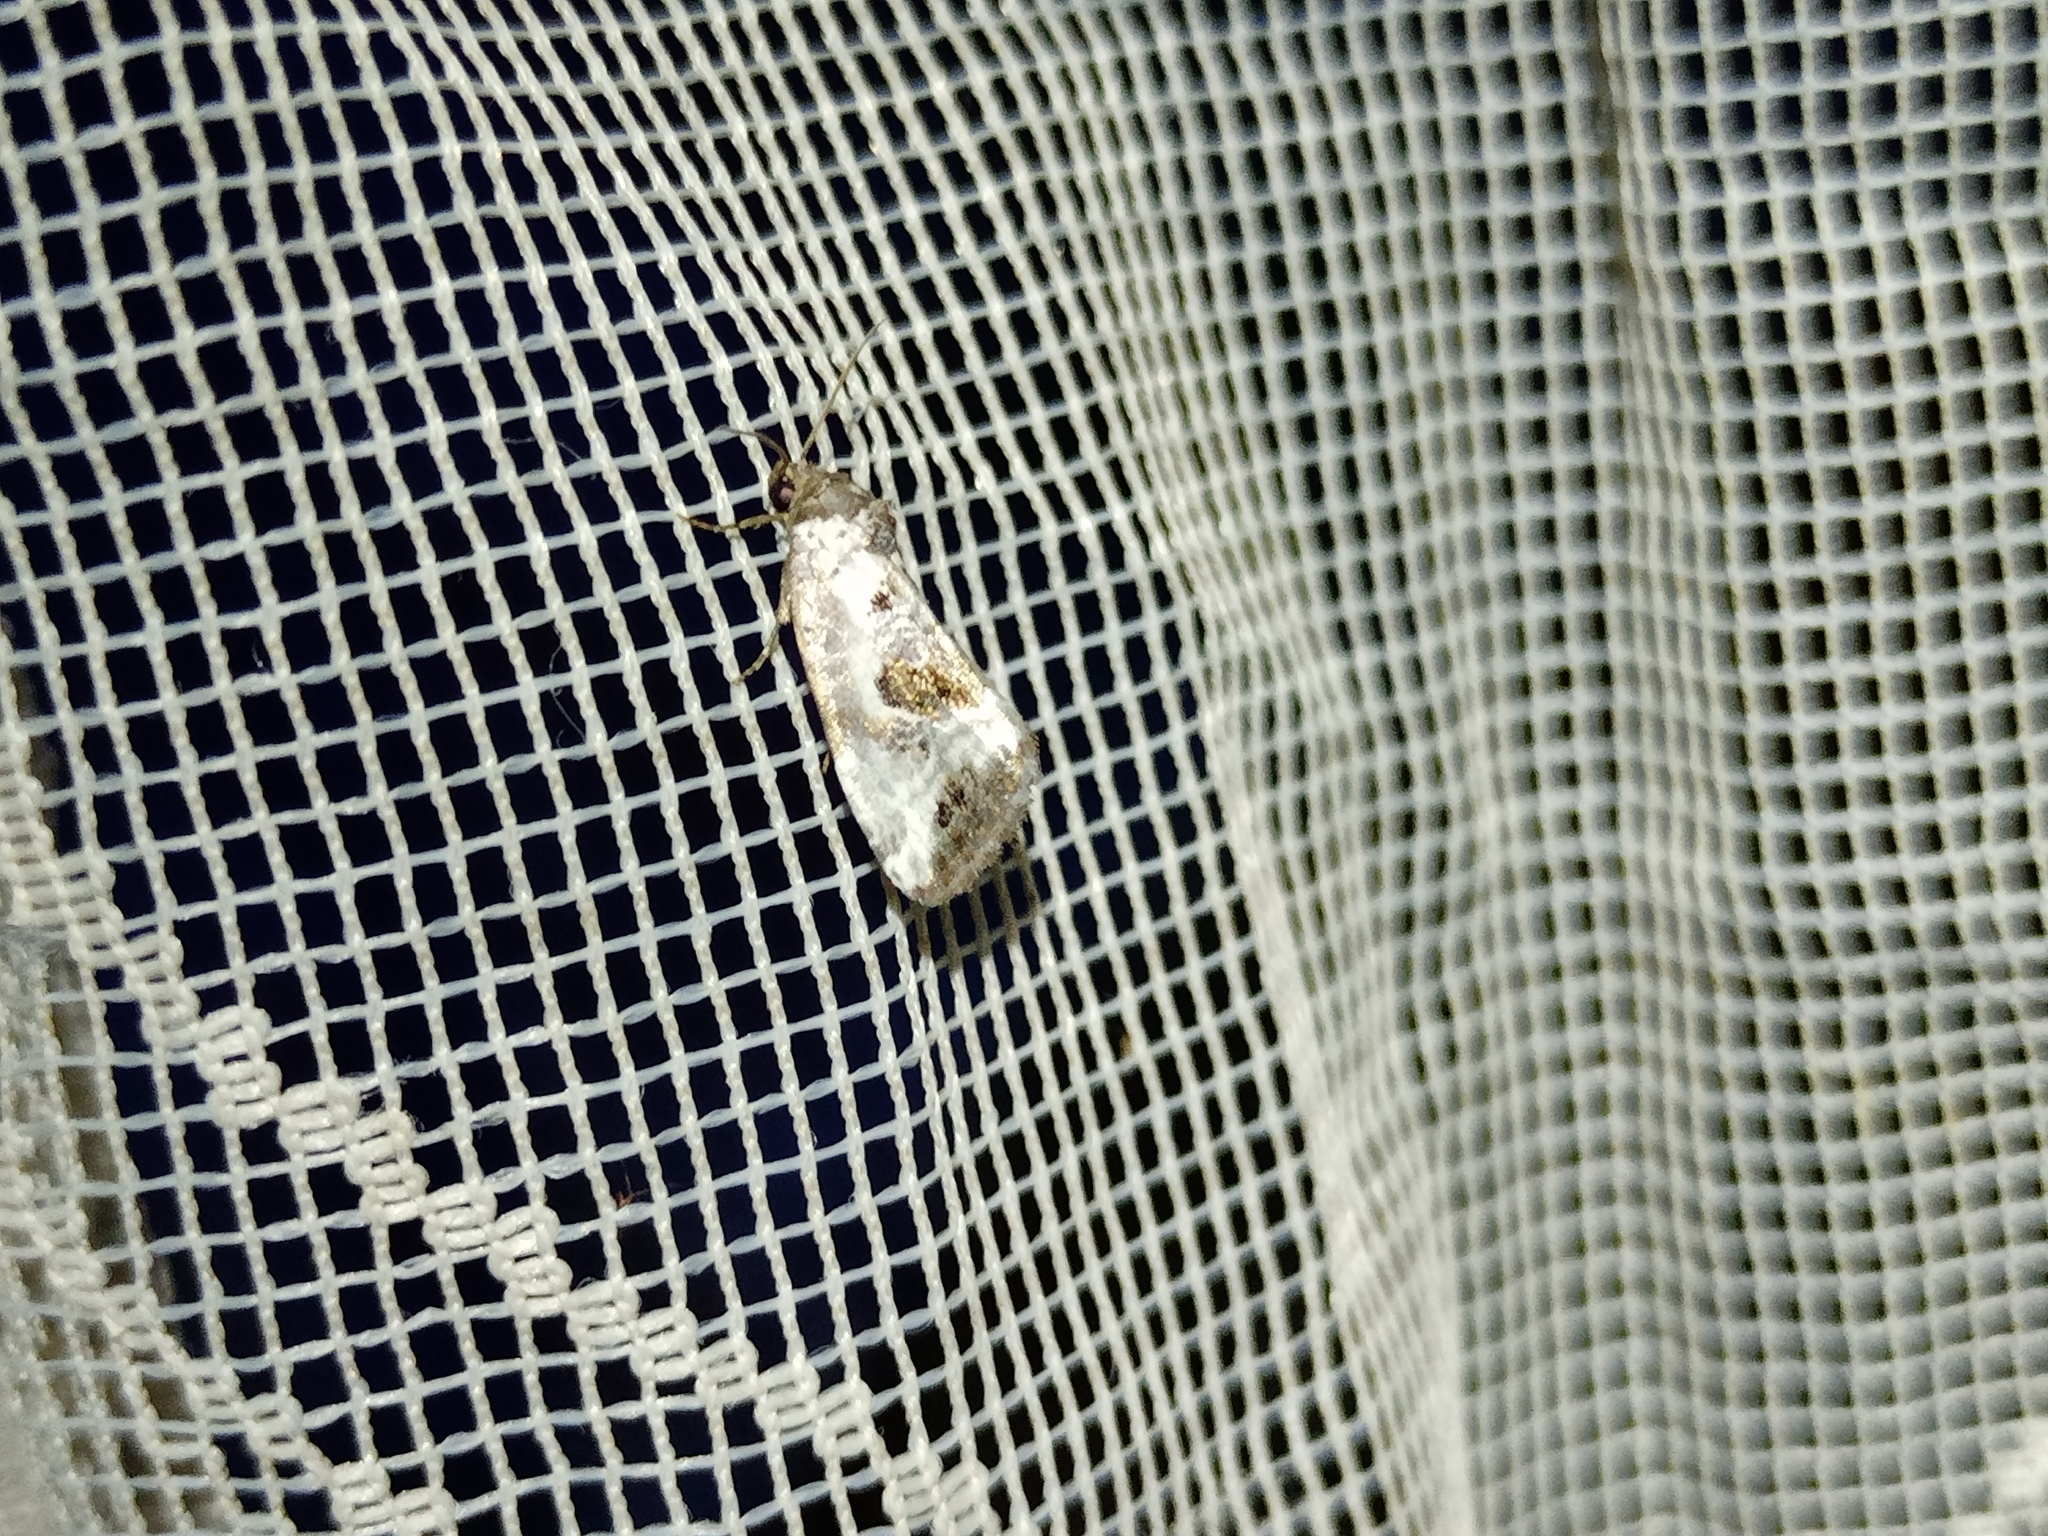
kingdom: Animalia
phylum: Arthropoda
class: Insecta
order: Lepidoptera
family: Noctuidae
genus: Elaphria
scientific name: Elaphria venustula
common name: Rosy marbled
